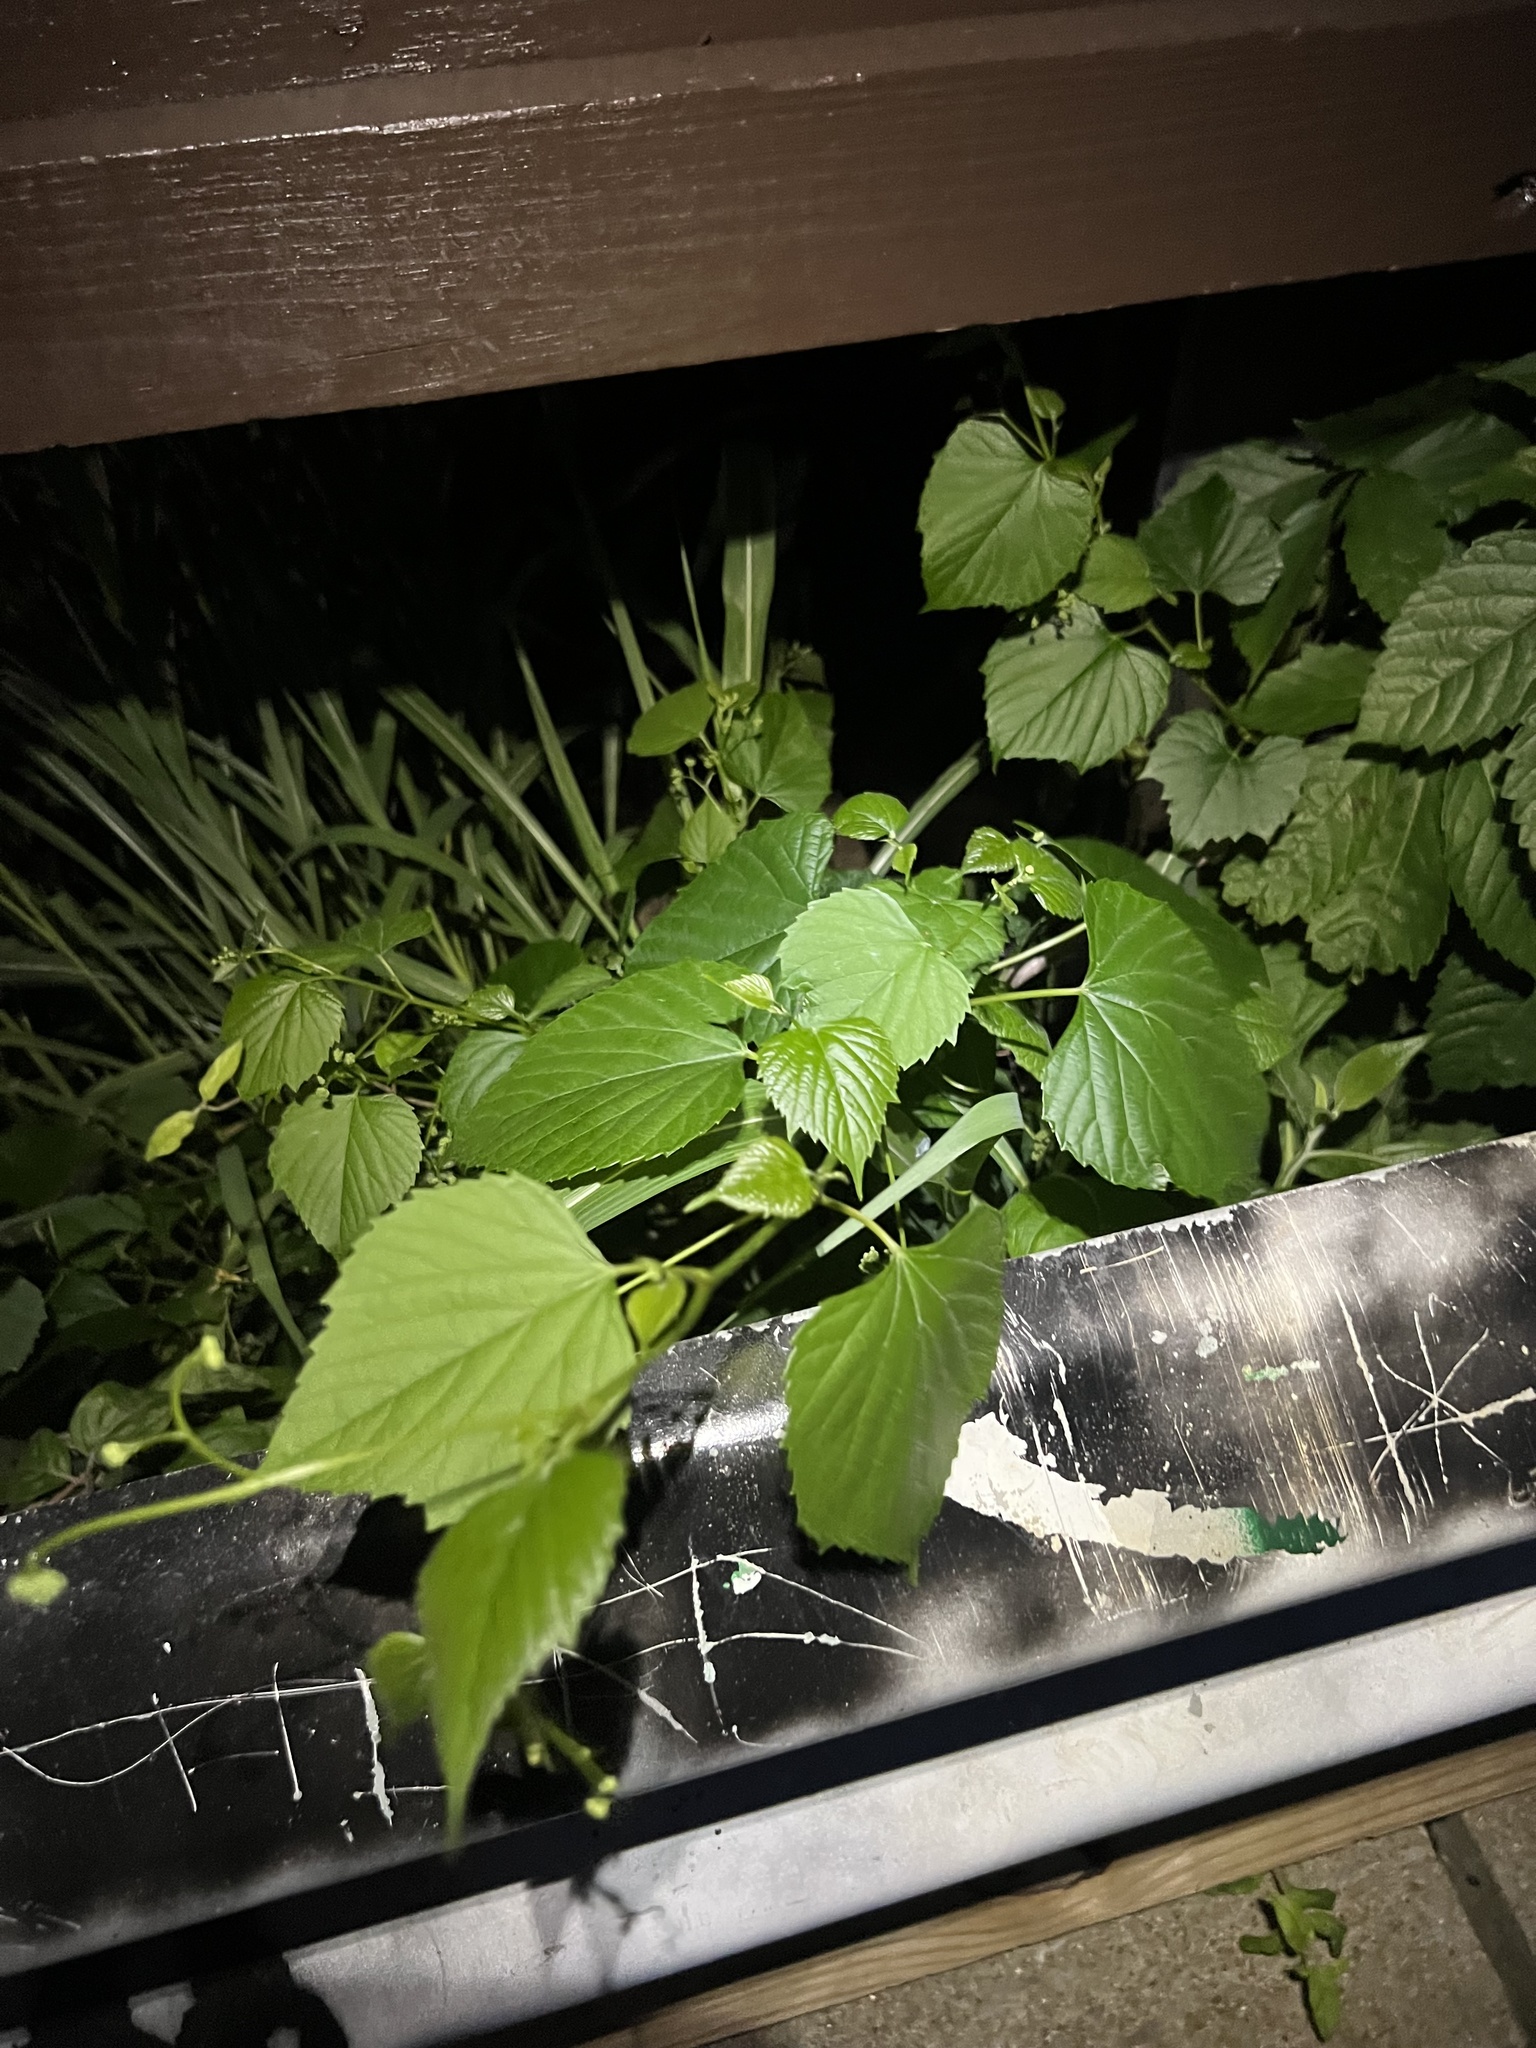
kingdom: Plantae
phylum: Tracheophyta
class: Magnoliopsida
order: Vitales
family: Vitaceae
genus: Ampelopsis
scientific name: Ampelopsis cordata
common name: Heart-leaf ampelopsis
